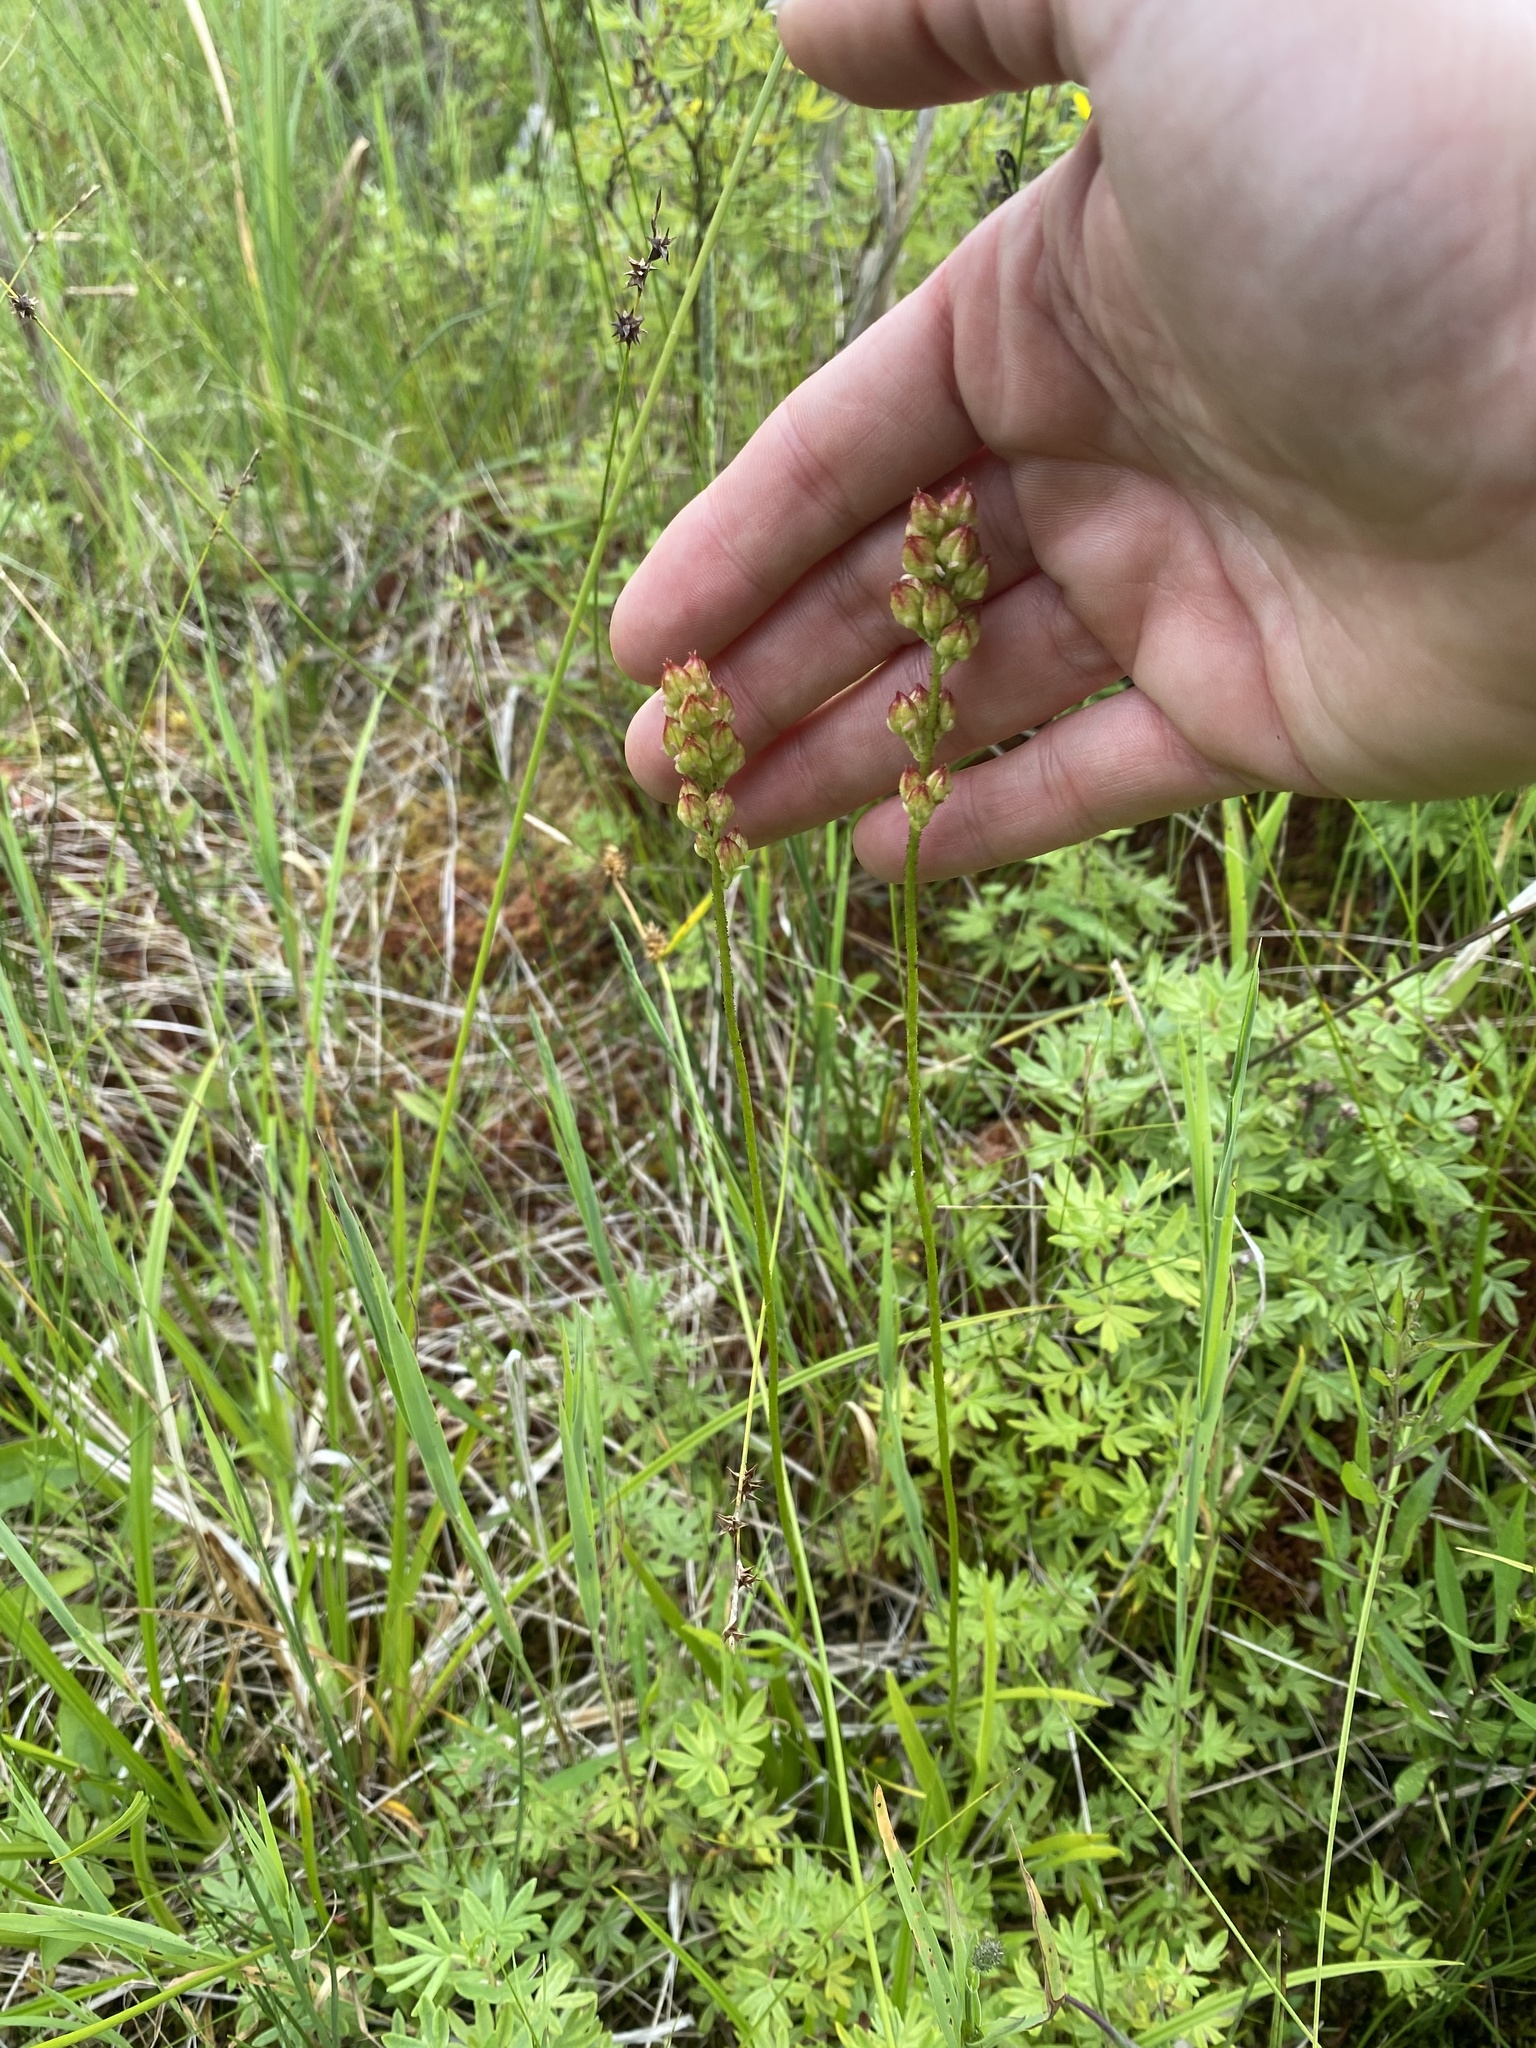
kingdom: Plantae
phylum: Tracheophyta
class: Liliopsida
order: Alismatales
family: Tofieldiaceae
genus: Triantha
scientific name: Triantha glutinosa
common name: Glutinous tofieldia
